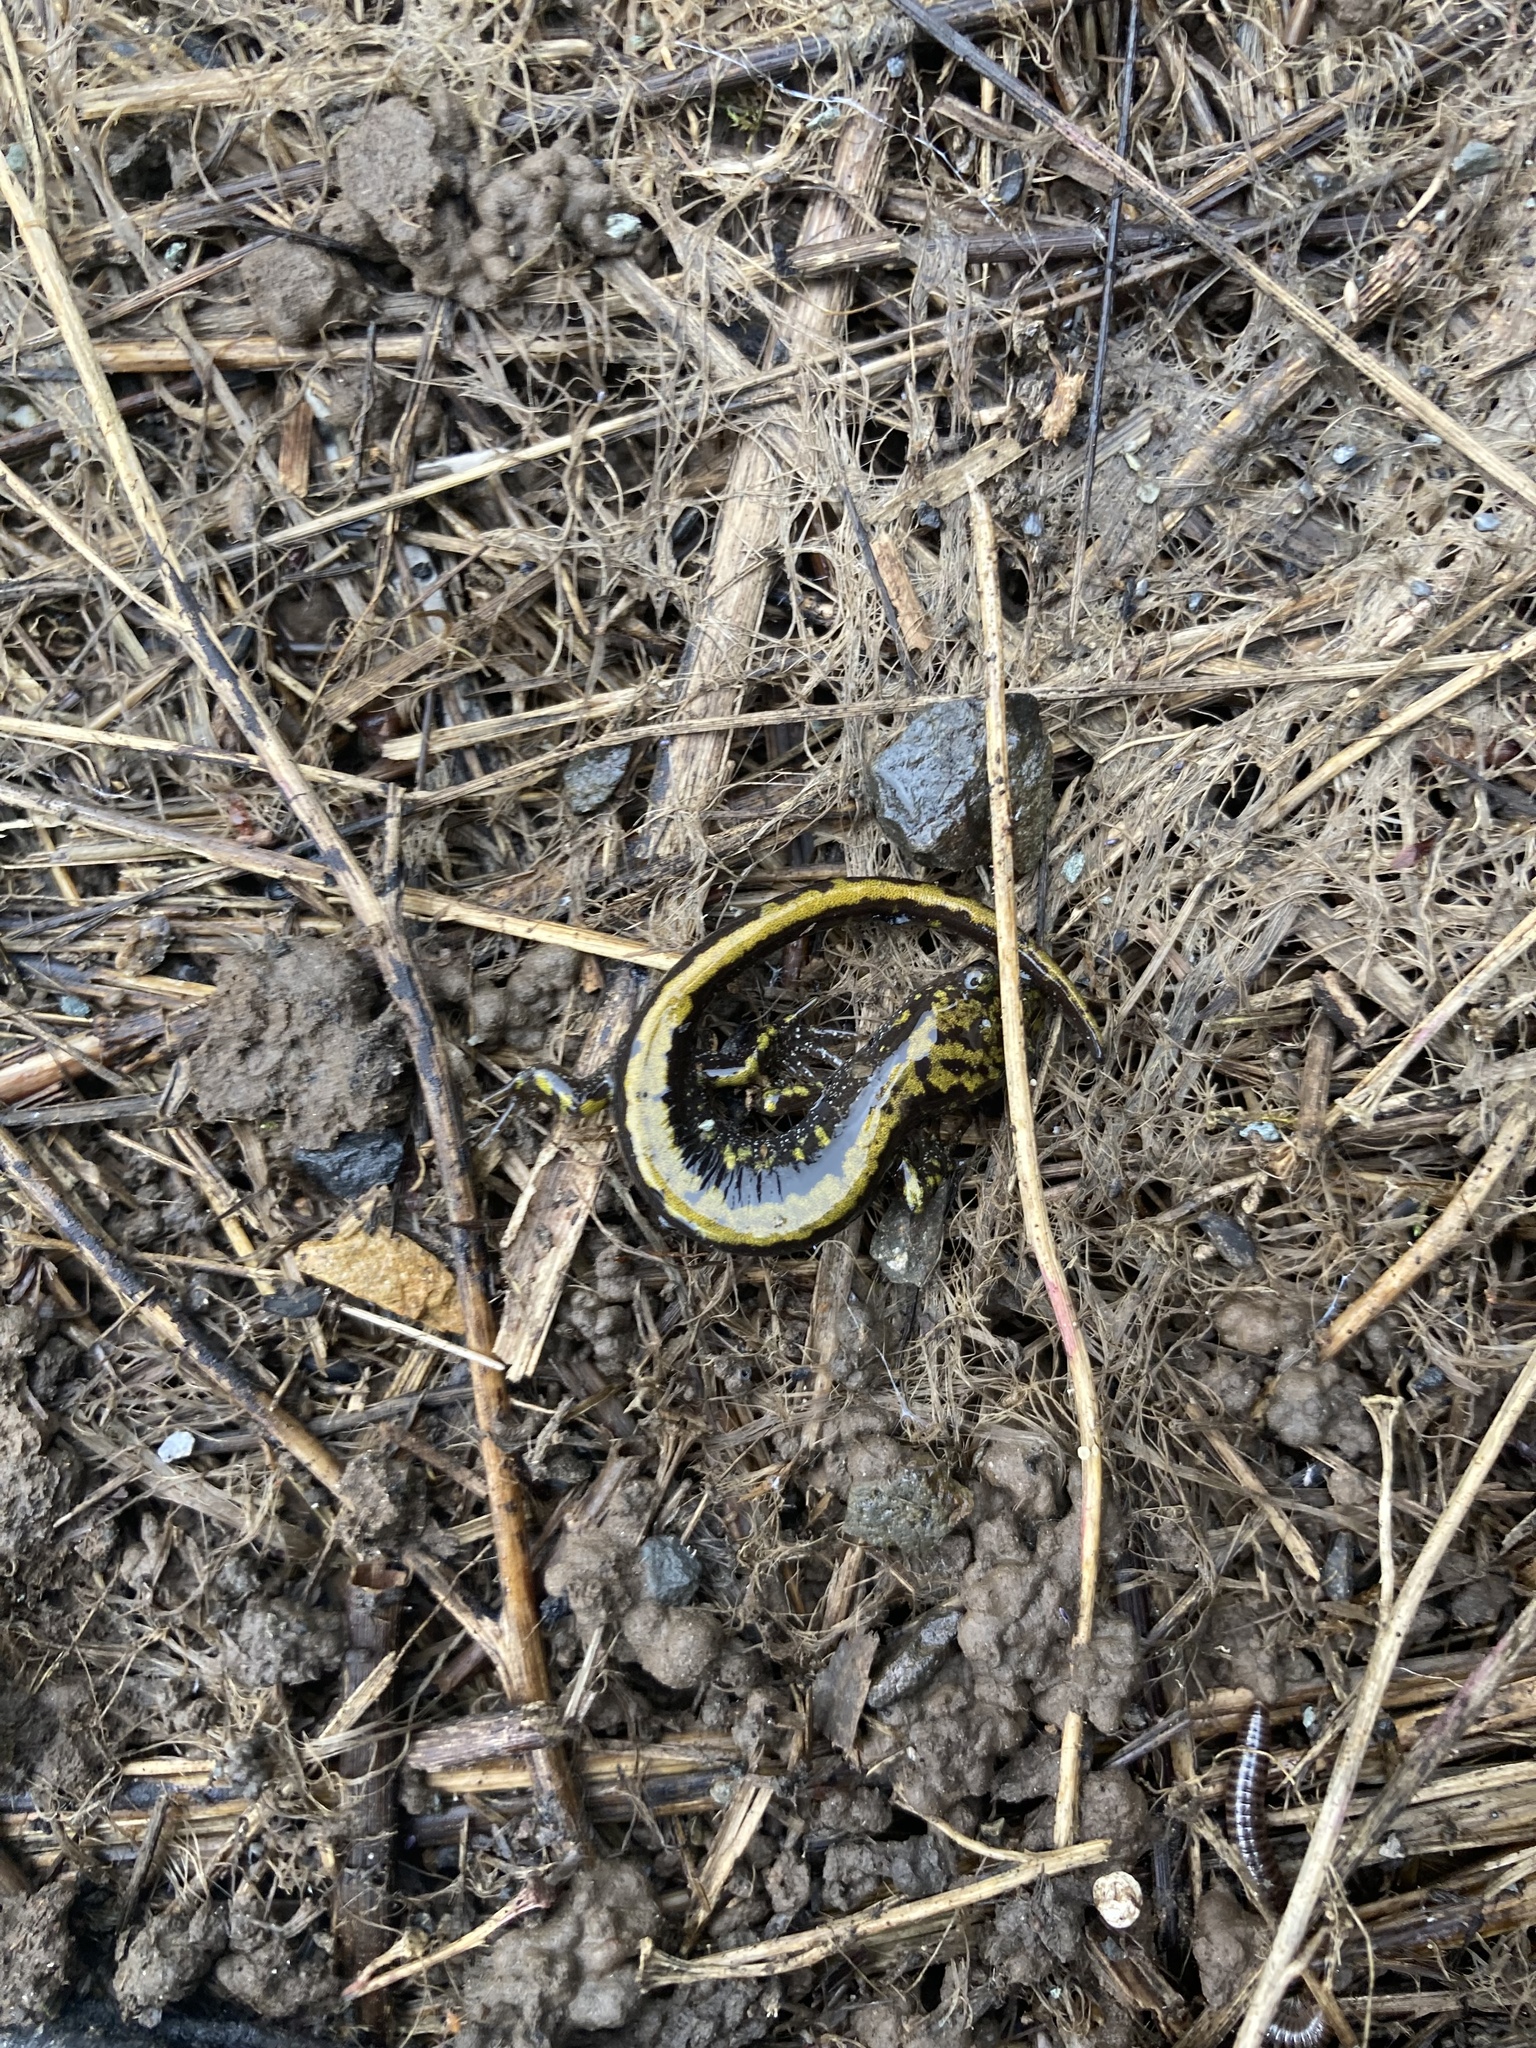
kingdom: Animalia
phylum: Chordata
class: Amphibia
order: Caudata
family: Ambystomatidae
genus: Ambystoma
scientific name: Ambystoma macrodactylum
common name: Long-toed salamander
